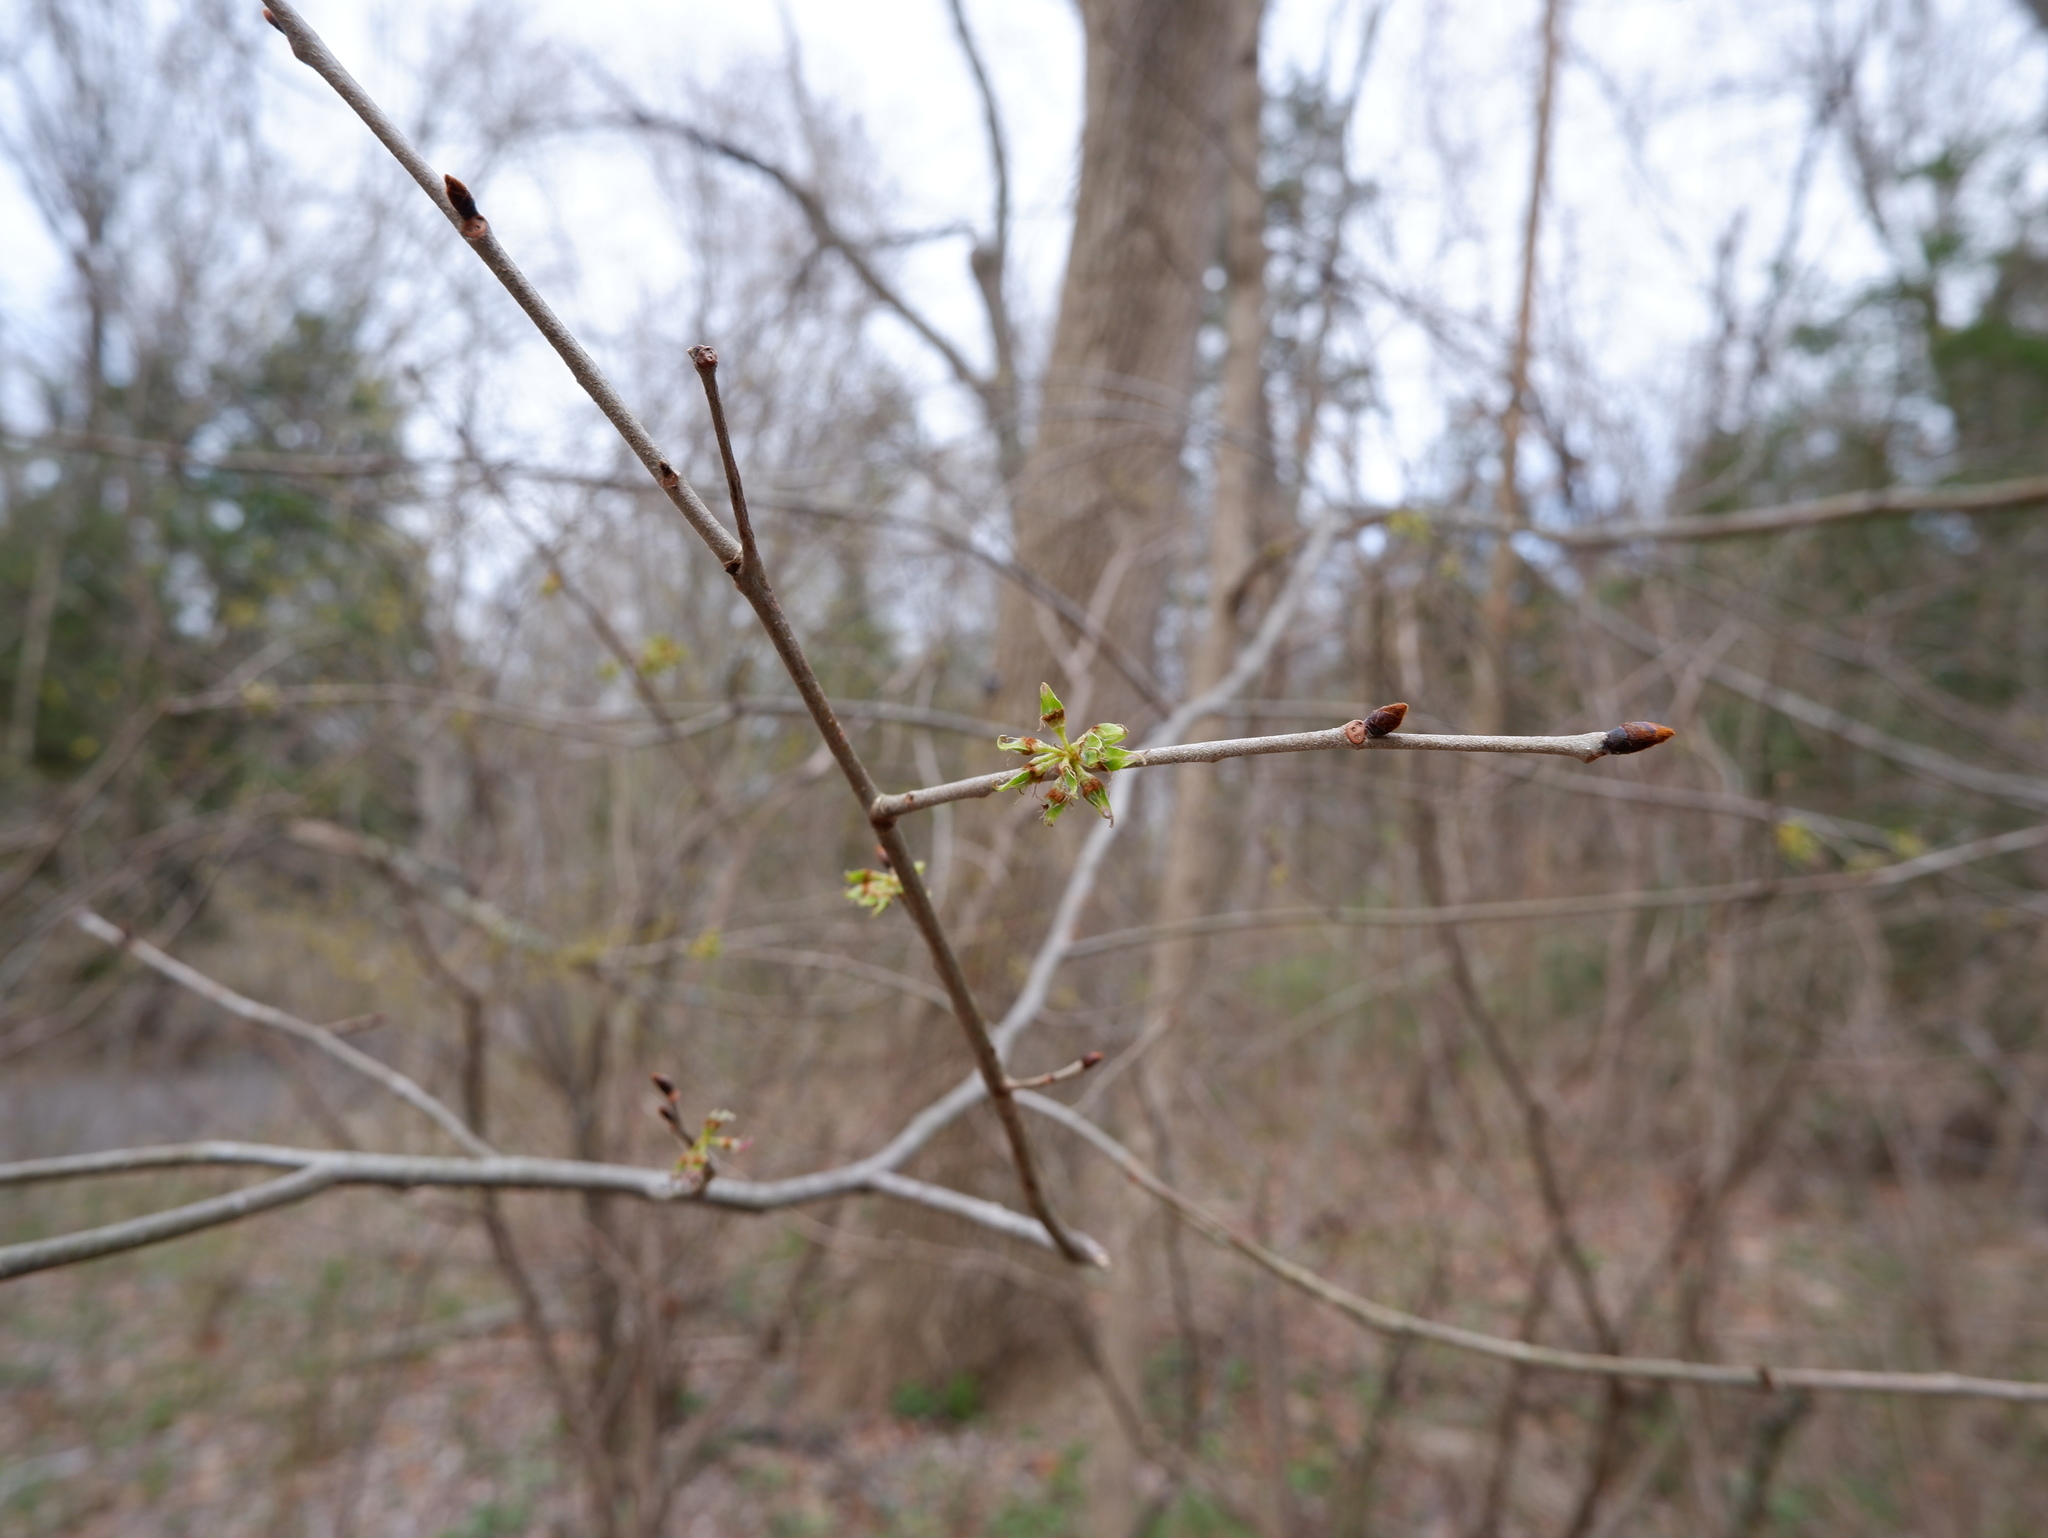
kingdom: Plantae
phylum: Tracheophyta
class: Magnoliopsida
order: Rosales
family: Ulmaceae
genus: Ulmus
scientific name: Ulmus rubra
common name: Slippery elm
